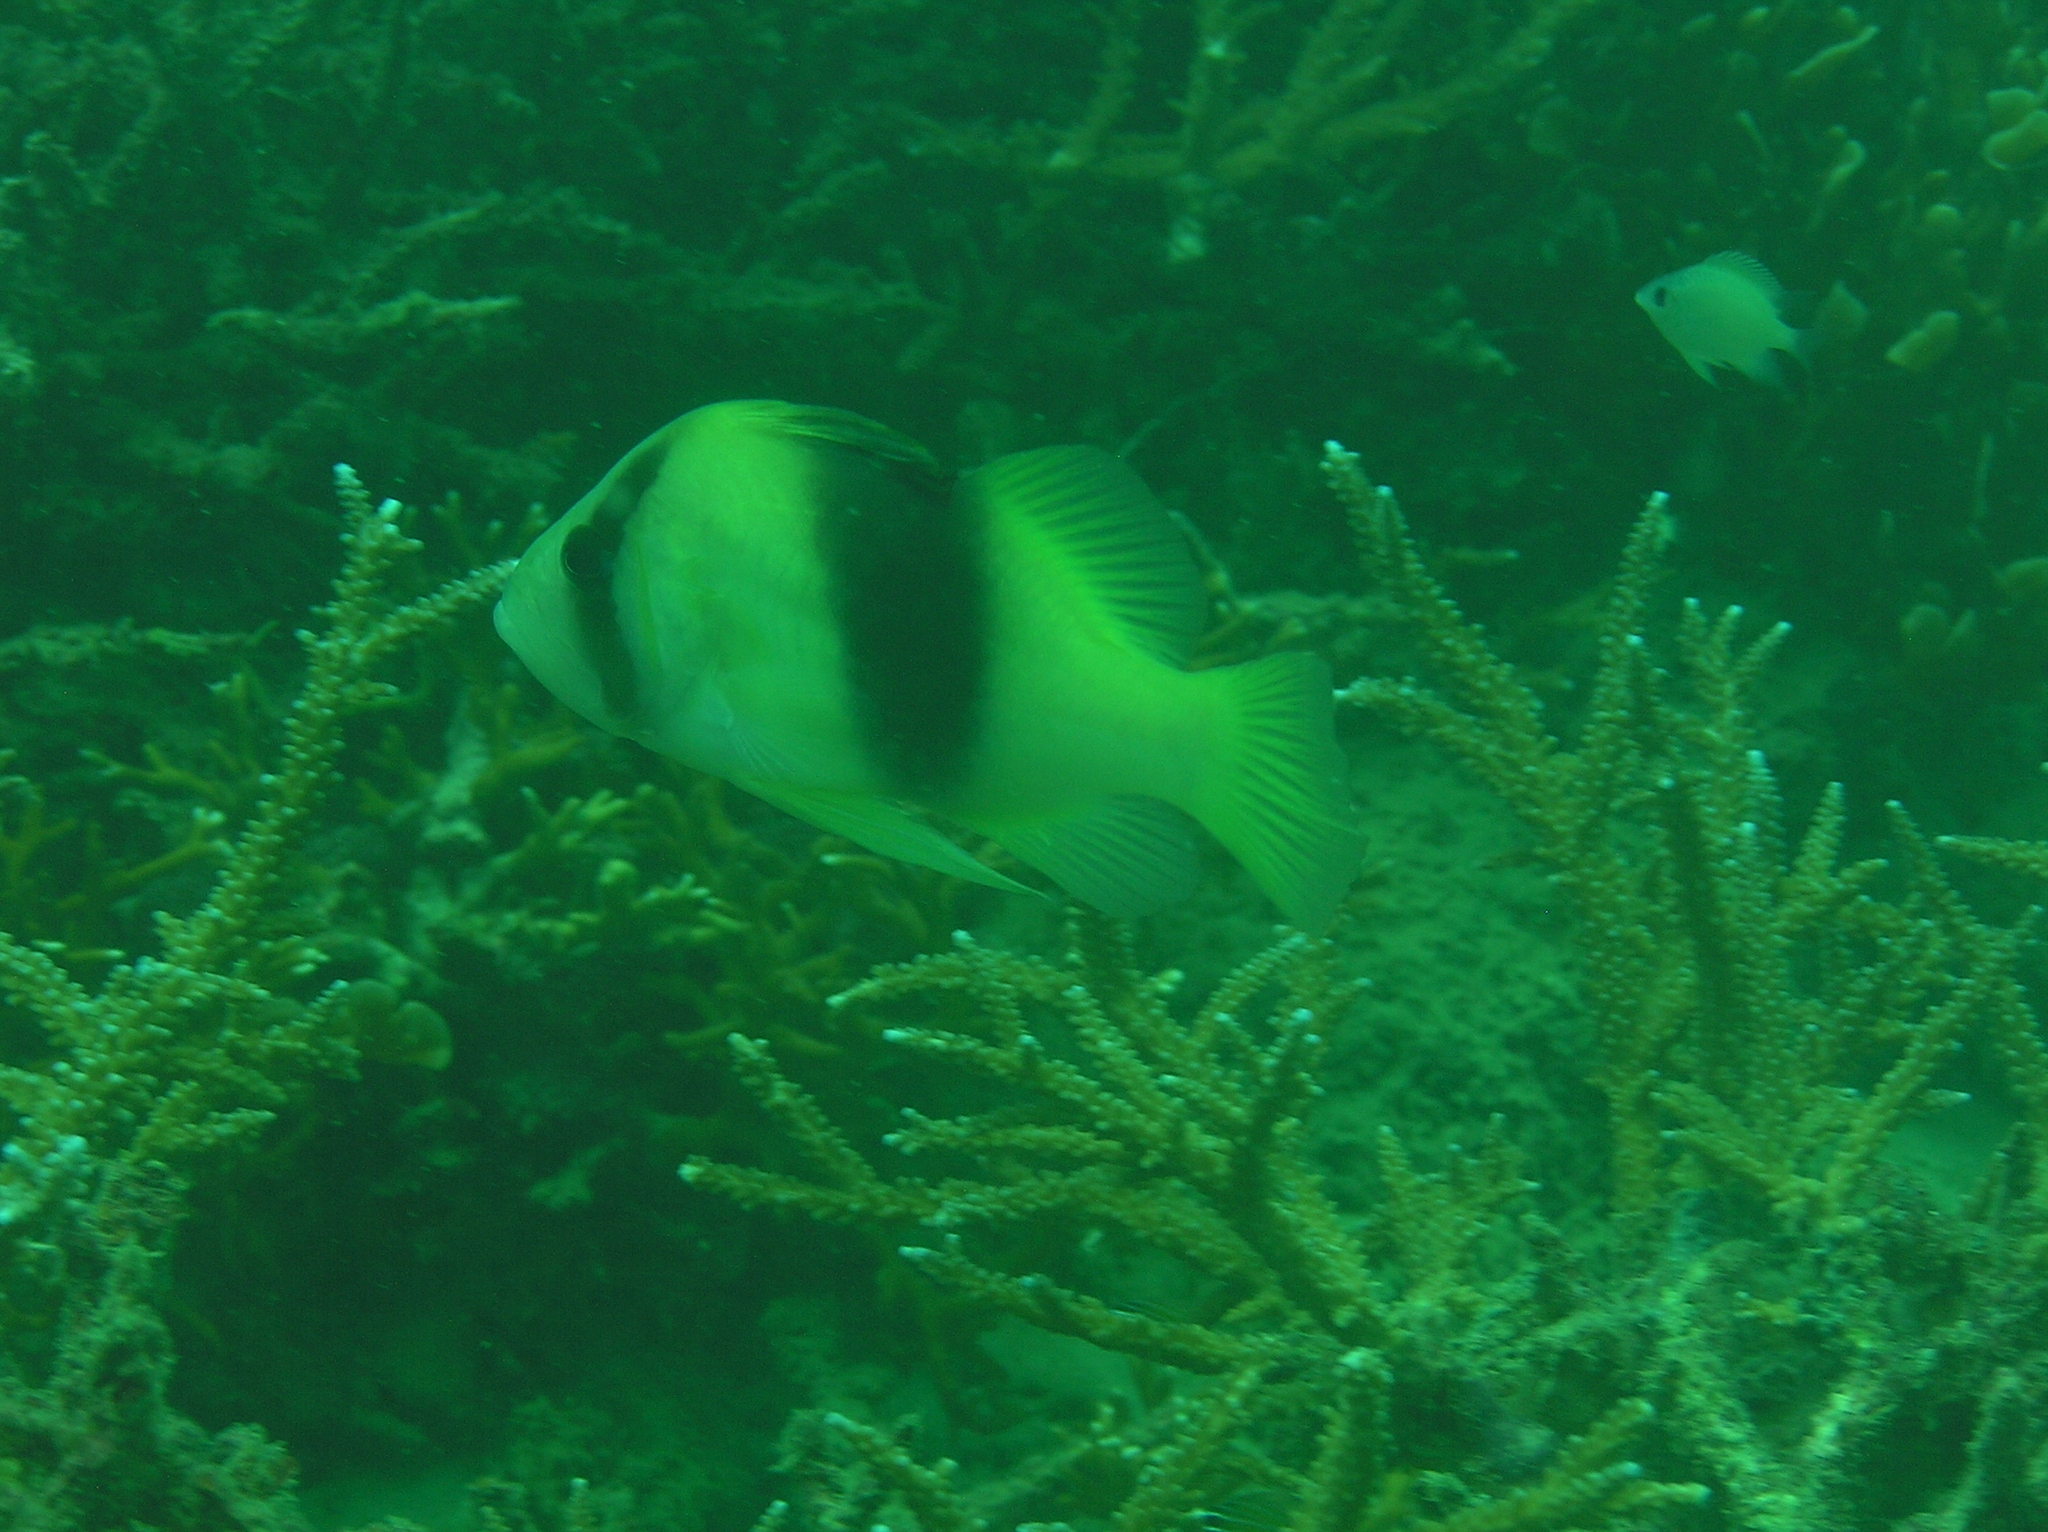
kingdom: Animalia
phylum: Chordata
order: Perciformes
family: Serranidae
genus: Diploprion
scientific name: Diploprion bifasciatum
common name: Barred soapfish
